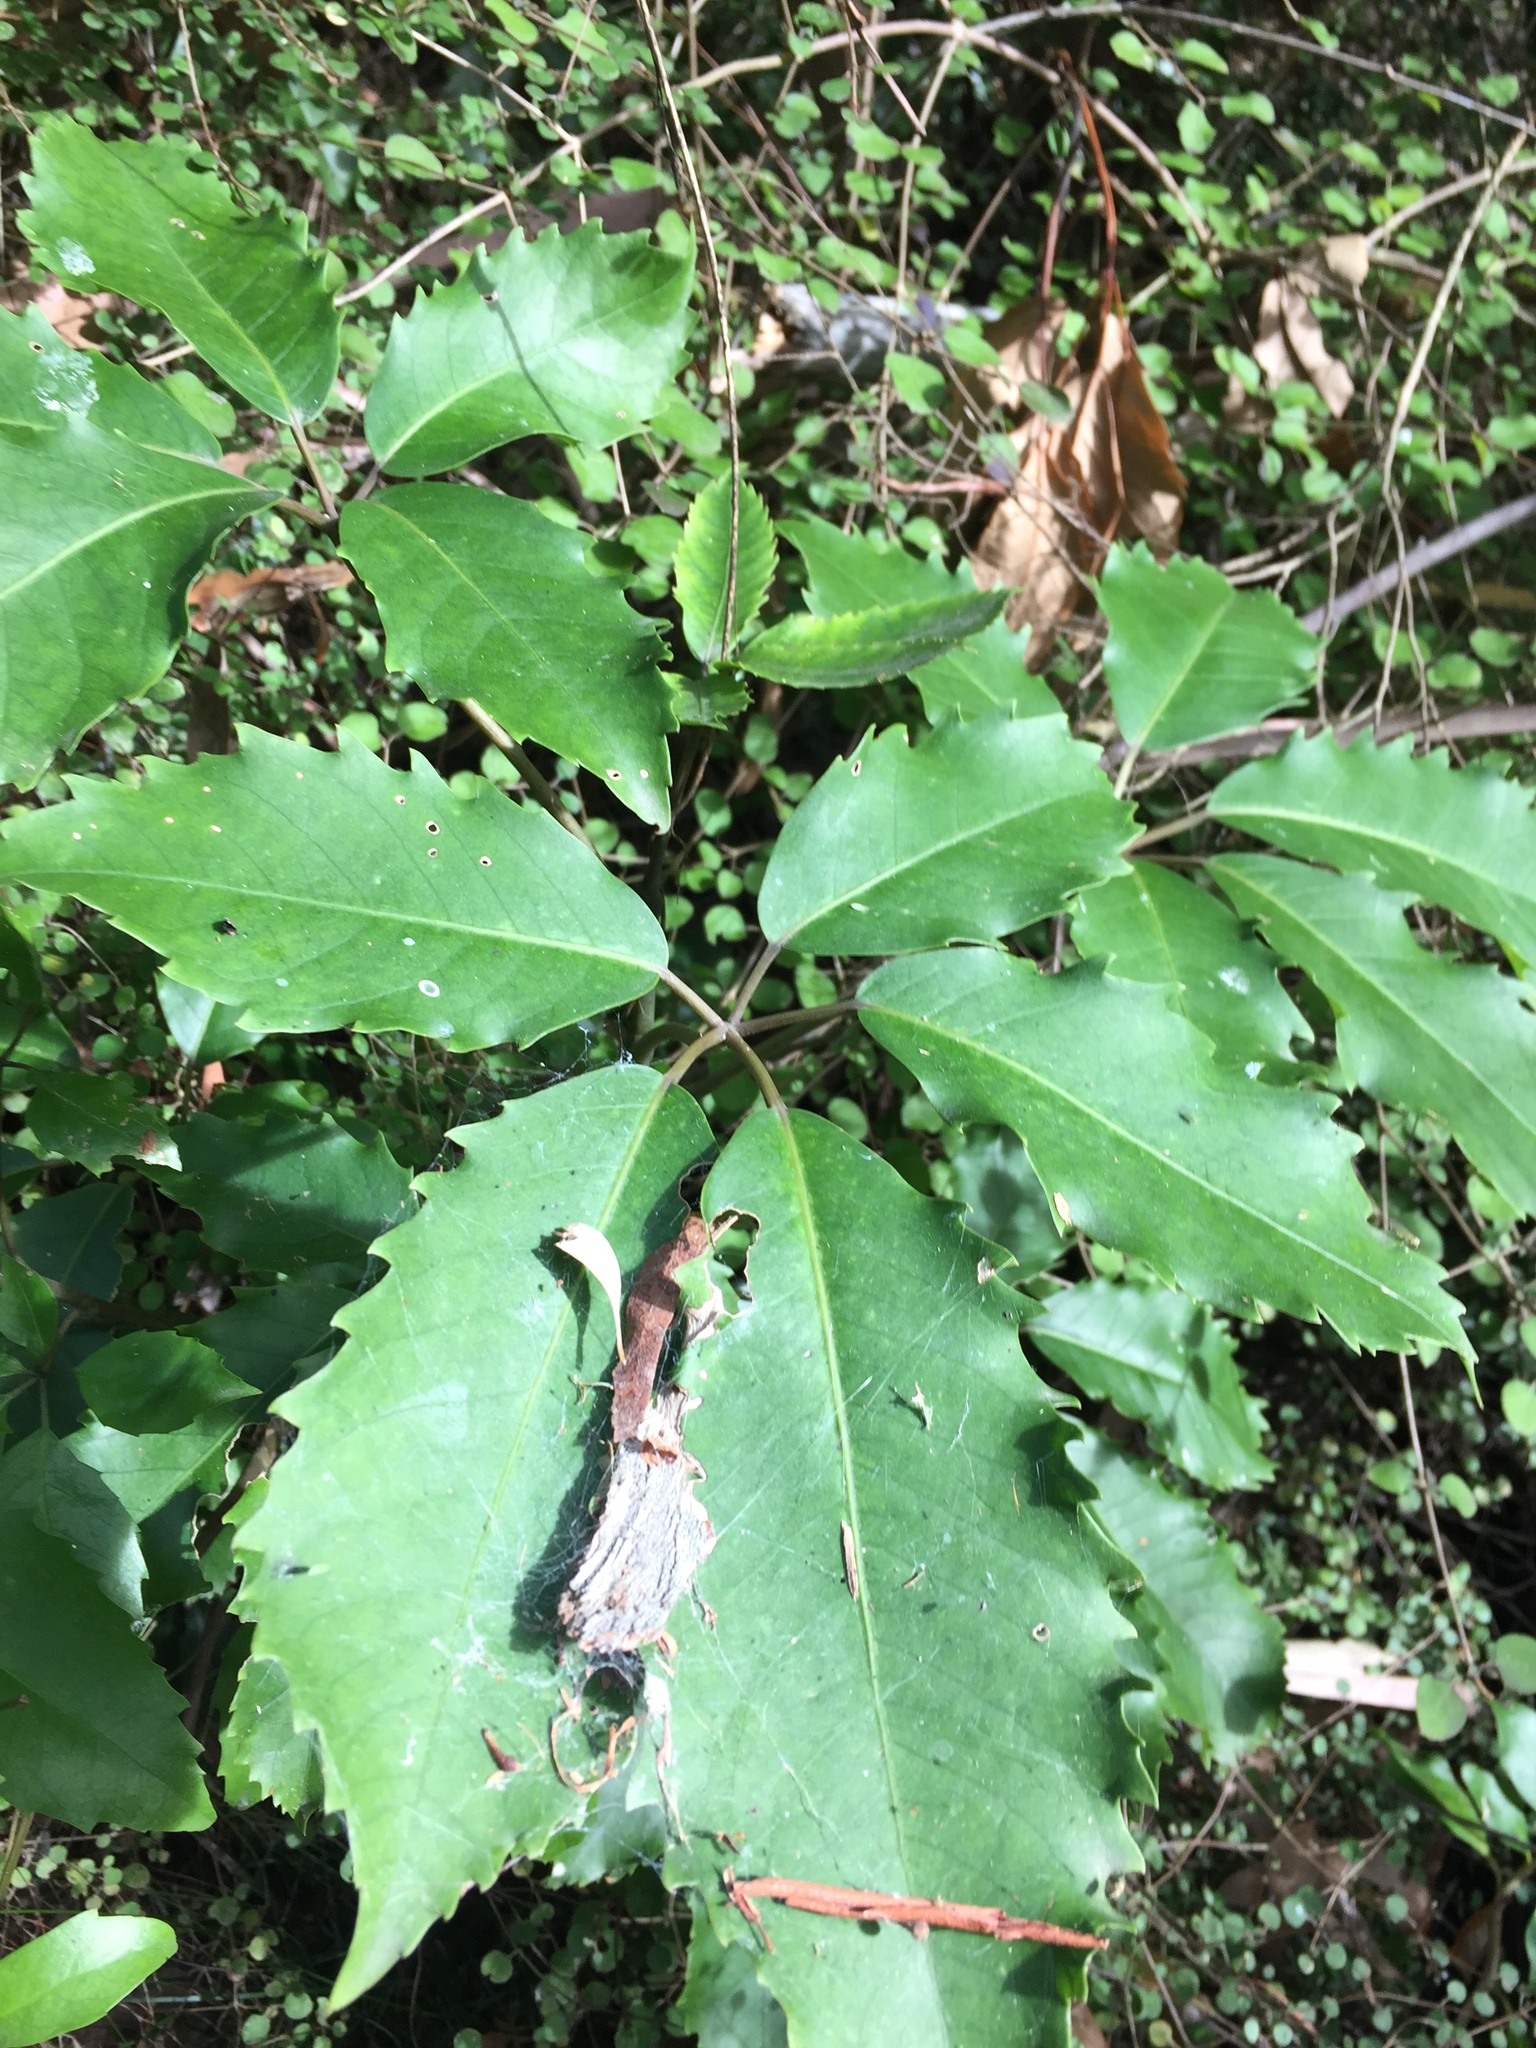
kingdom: Plantae
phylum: Tracheophyta
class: Magnoliopsida
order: Apiales
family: Araliaceae
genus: Neopanax
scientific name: Neopanax arboreus
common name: Five-fingers
